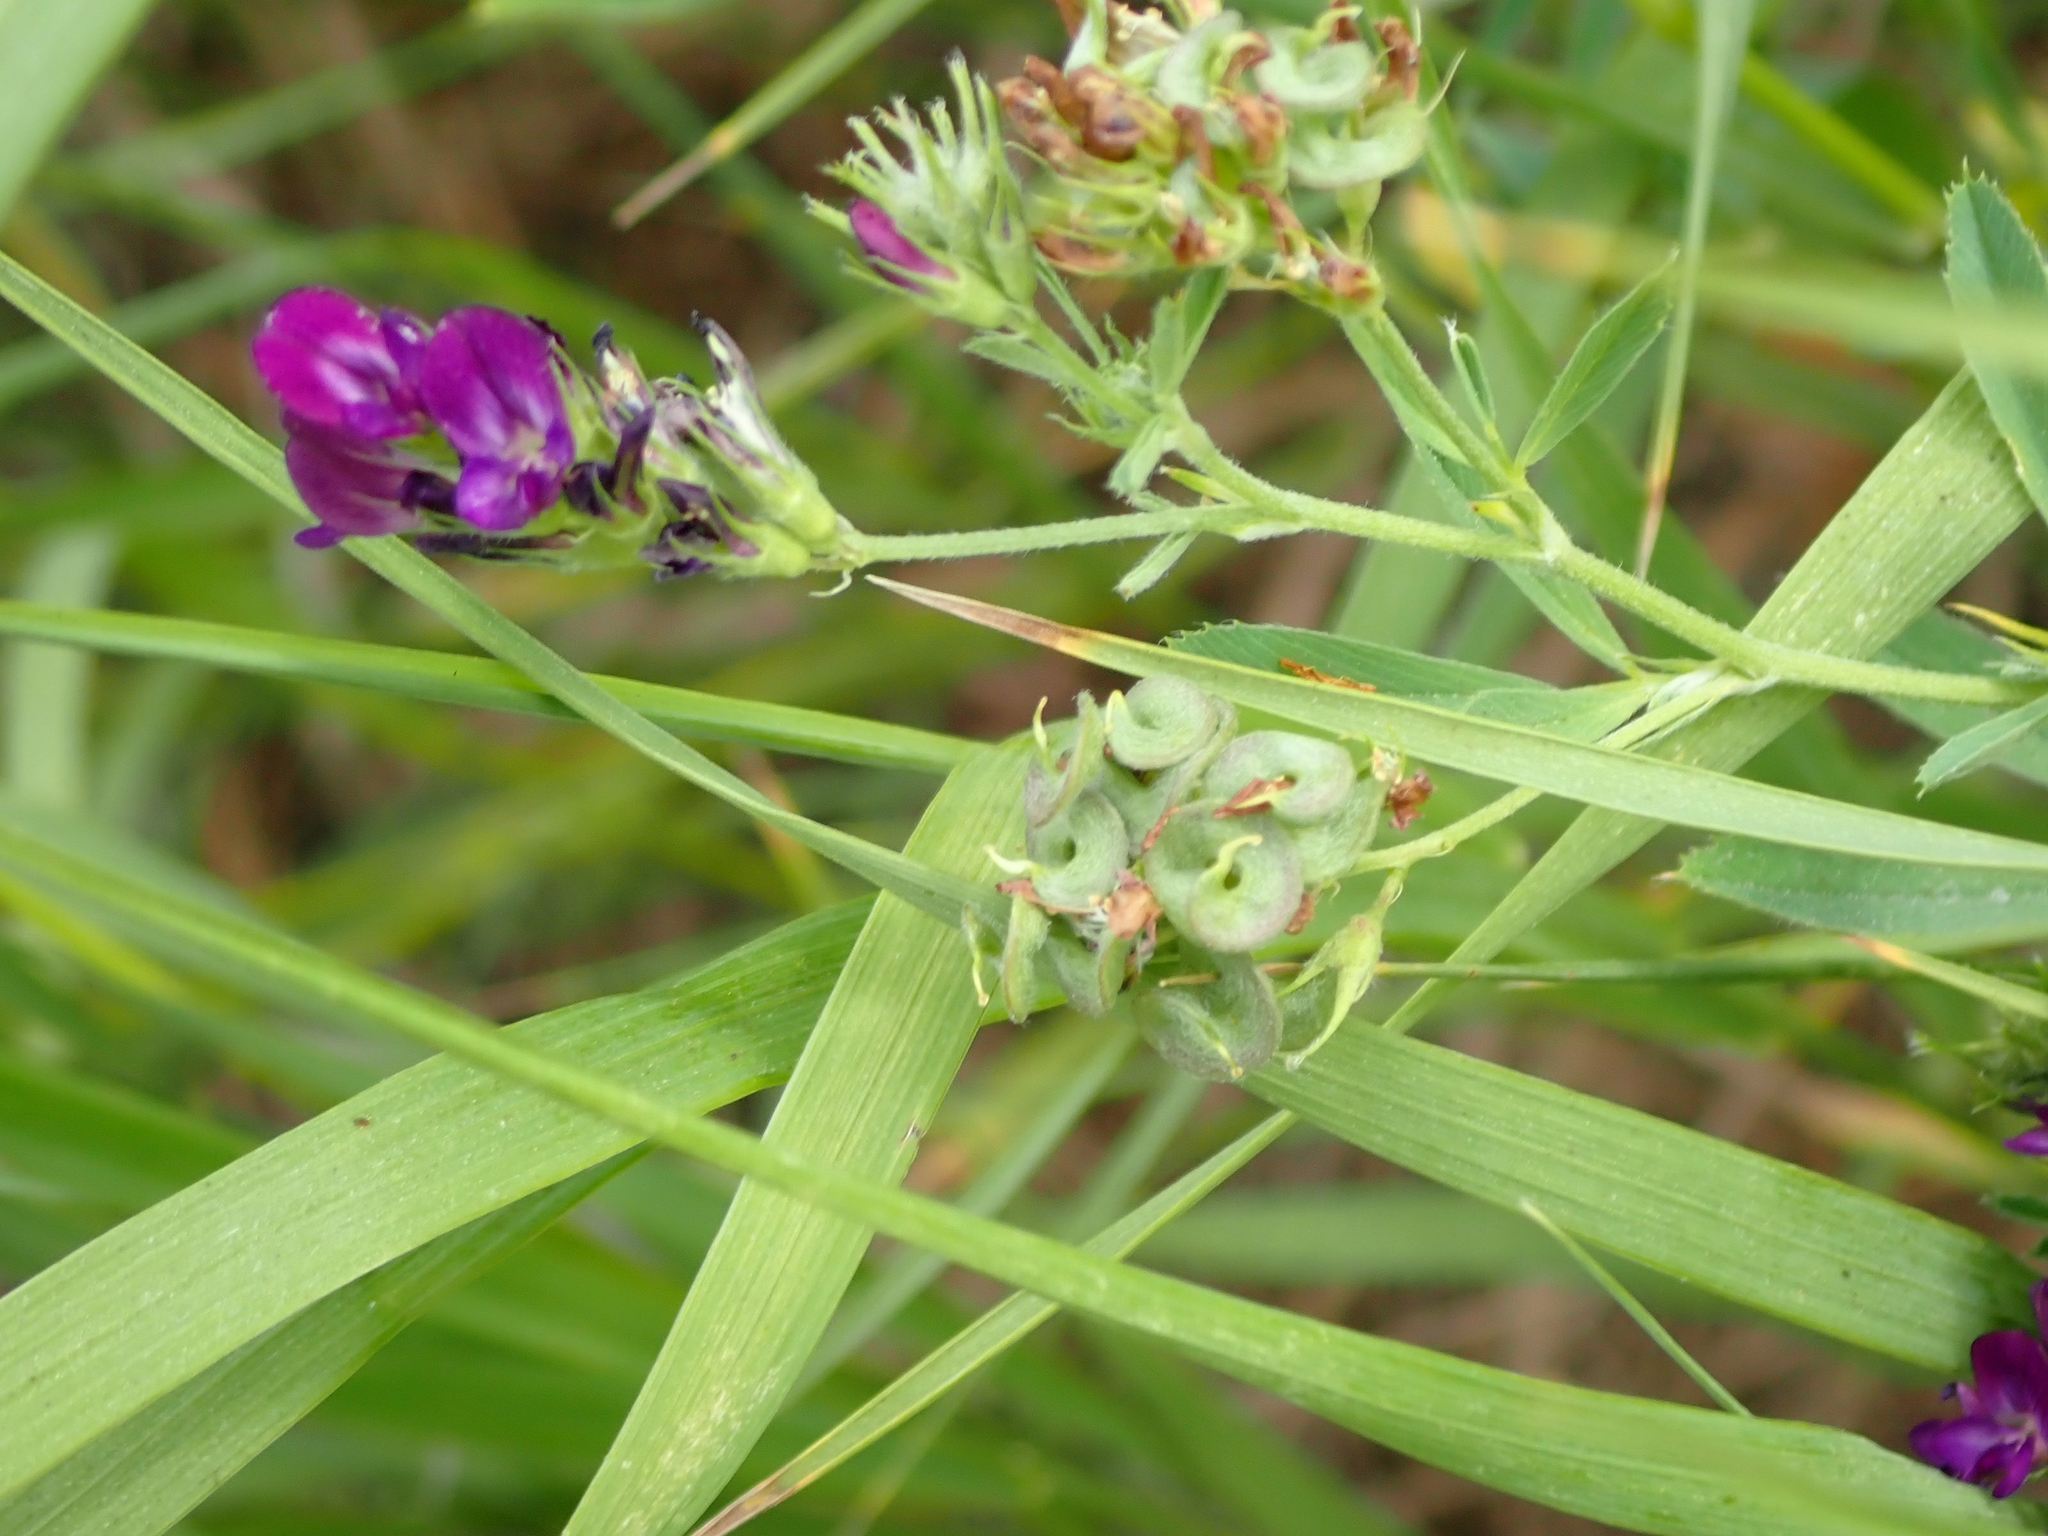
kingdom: Plantae
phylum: Tracheophyta
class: Magnoliopsida
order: Fabales
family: Fabaceae
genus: Medicago
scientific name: Medicago sativa
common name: Alfalfa
